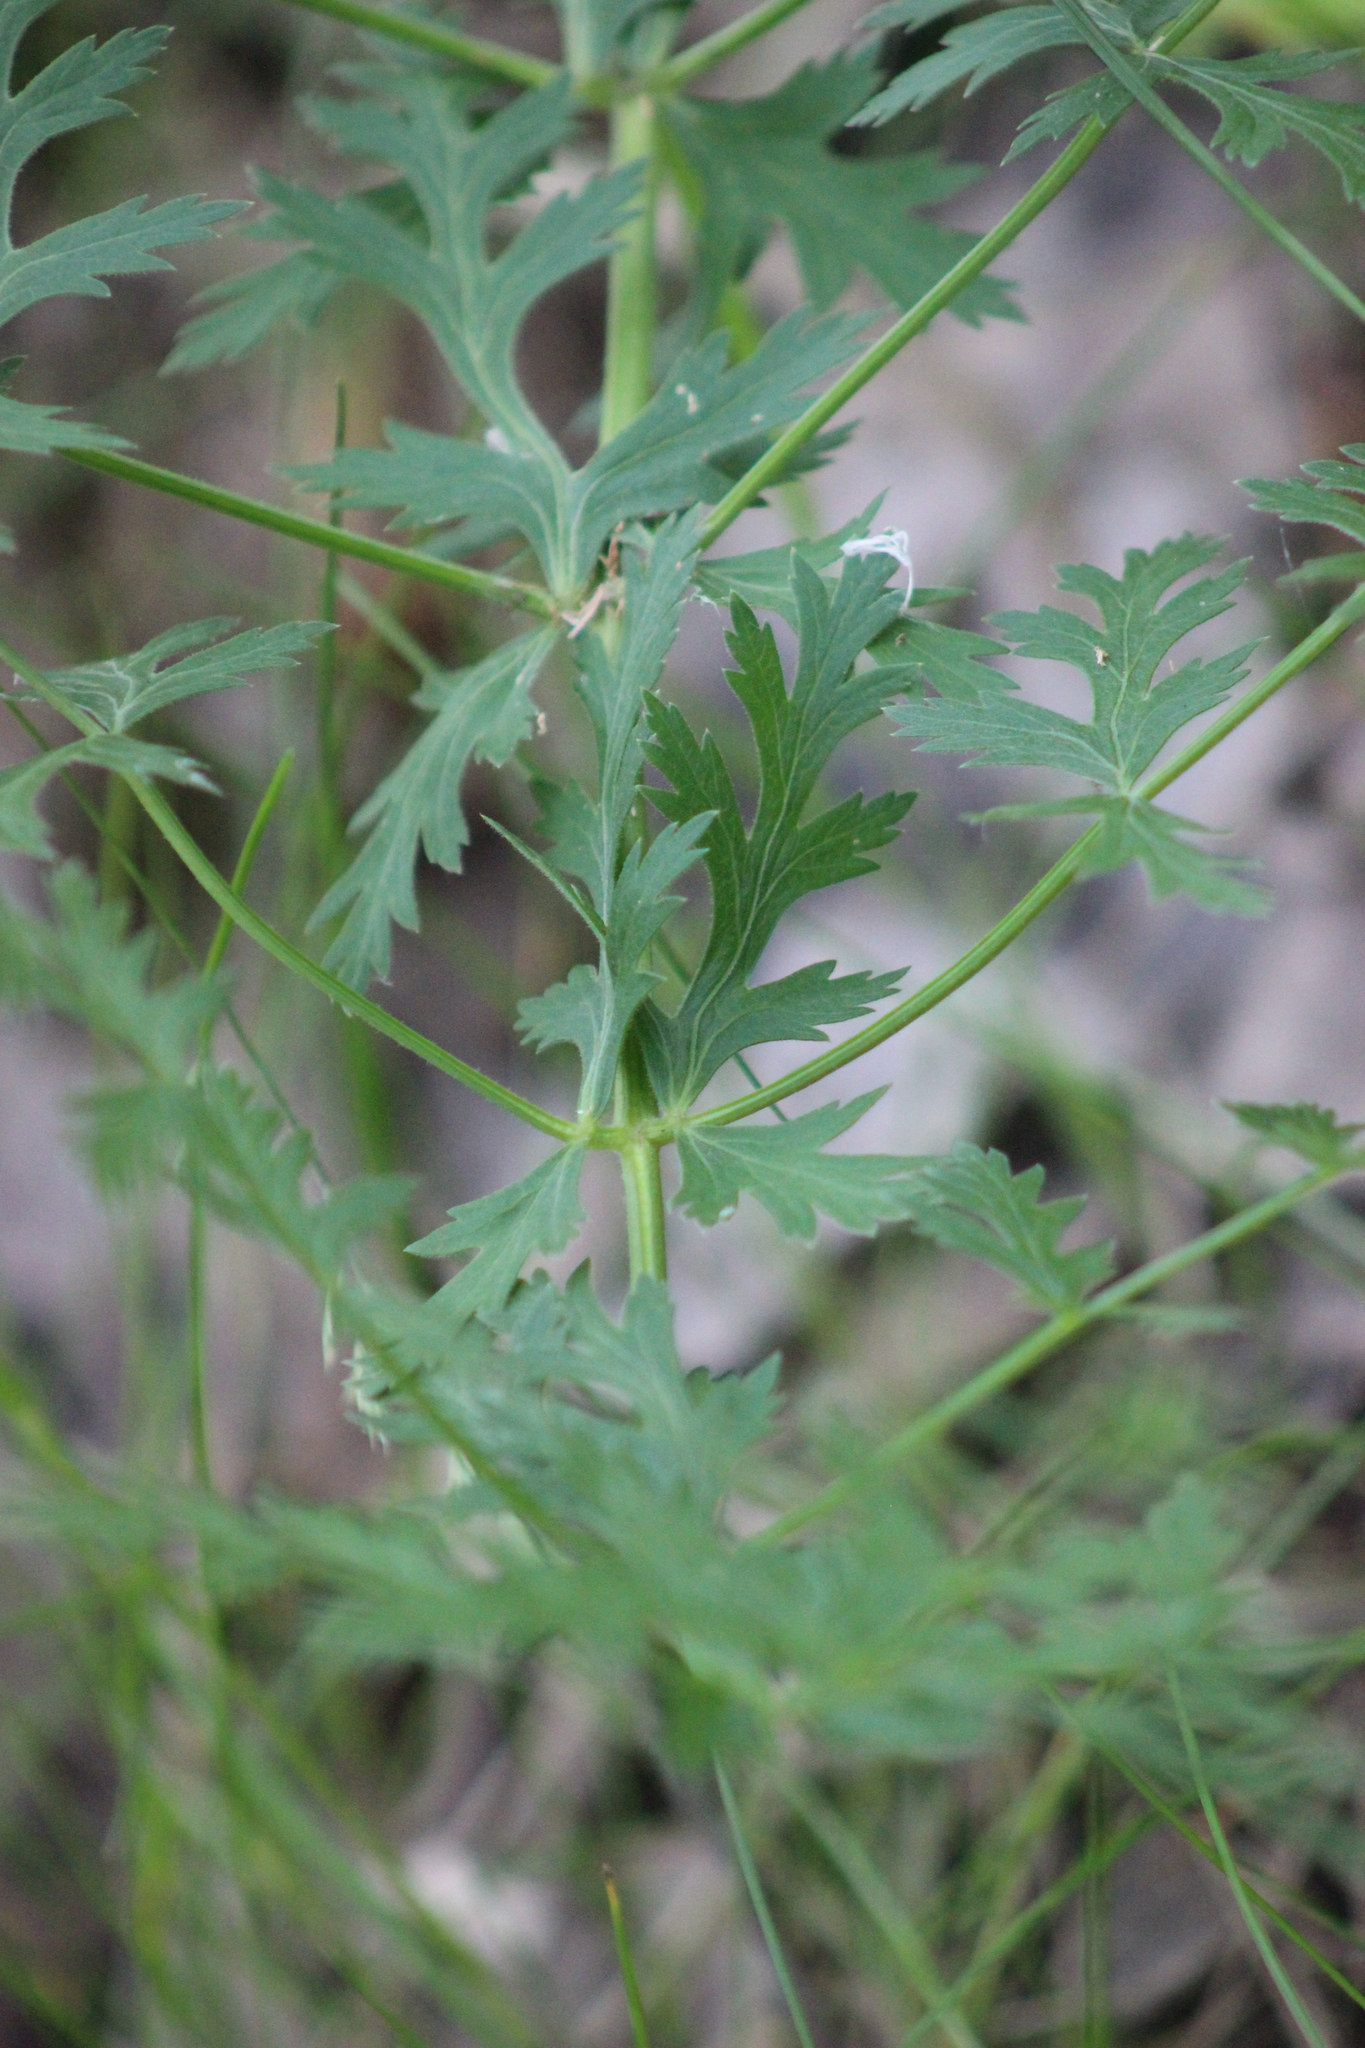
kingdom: Plantae
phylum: Tracheophyta
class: Magnoliopsida
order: Apiales
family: Apiaceae
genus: Seseli
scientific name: Seseli libanotis
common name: Mooncarrot
